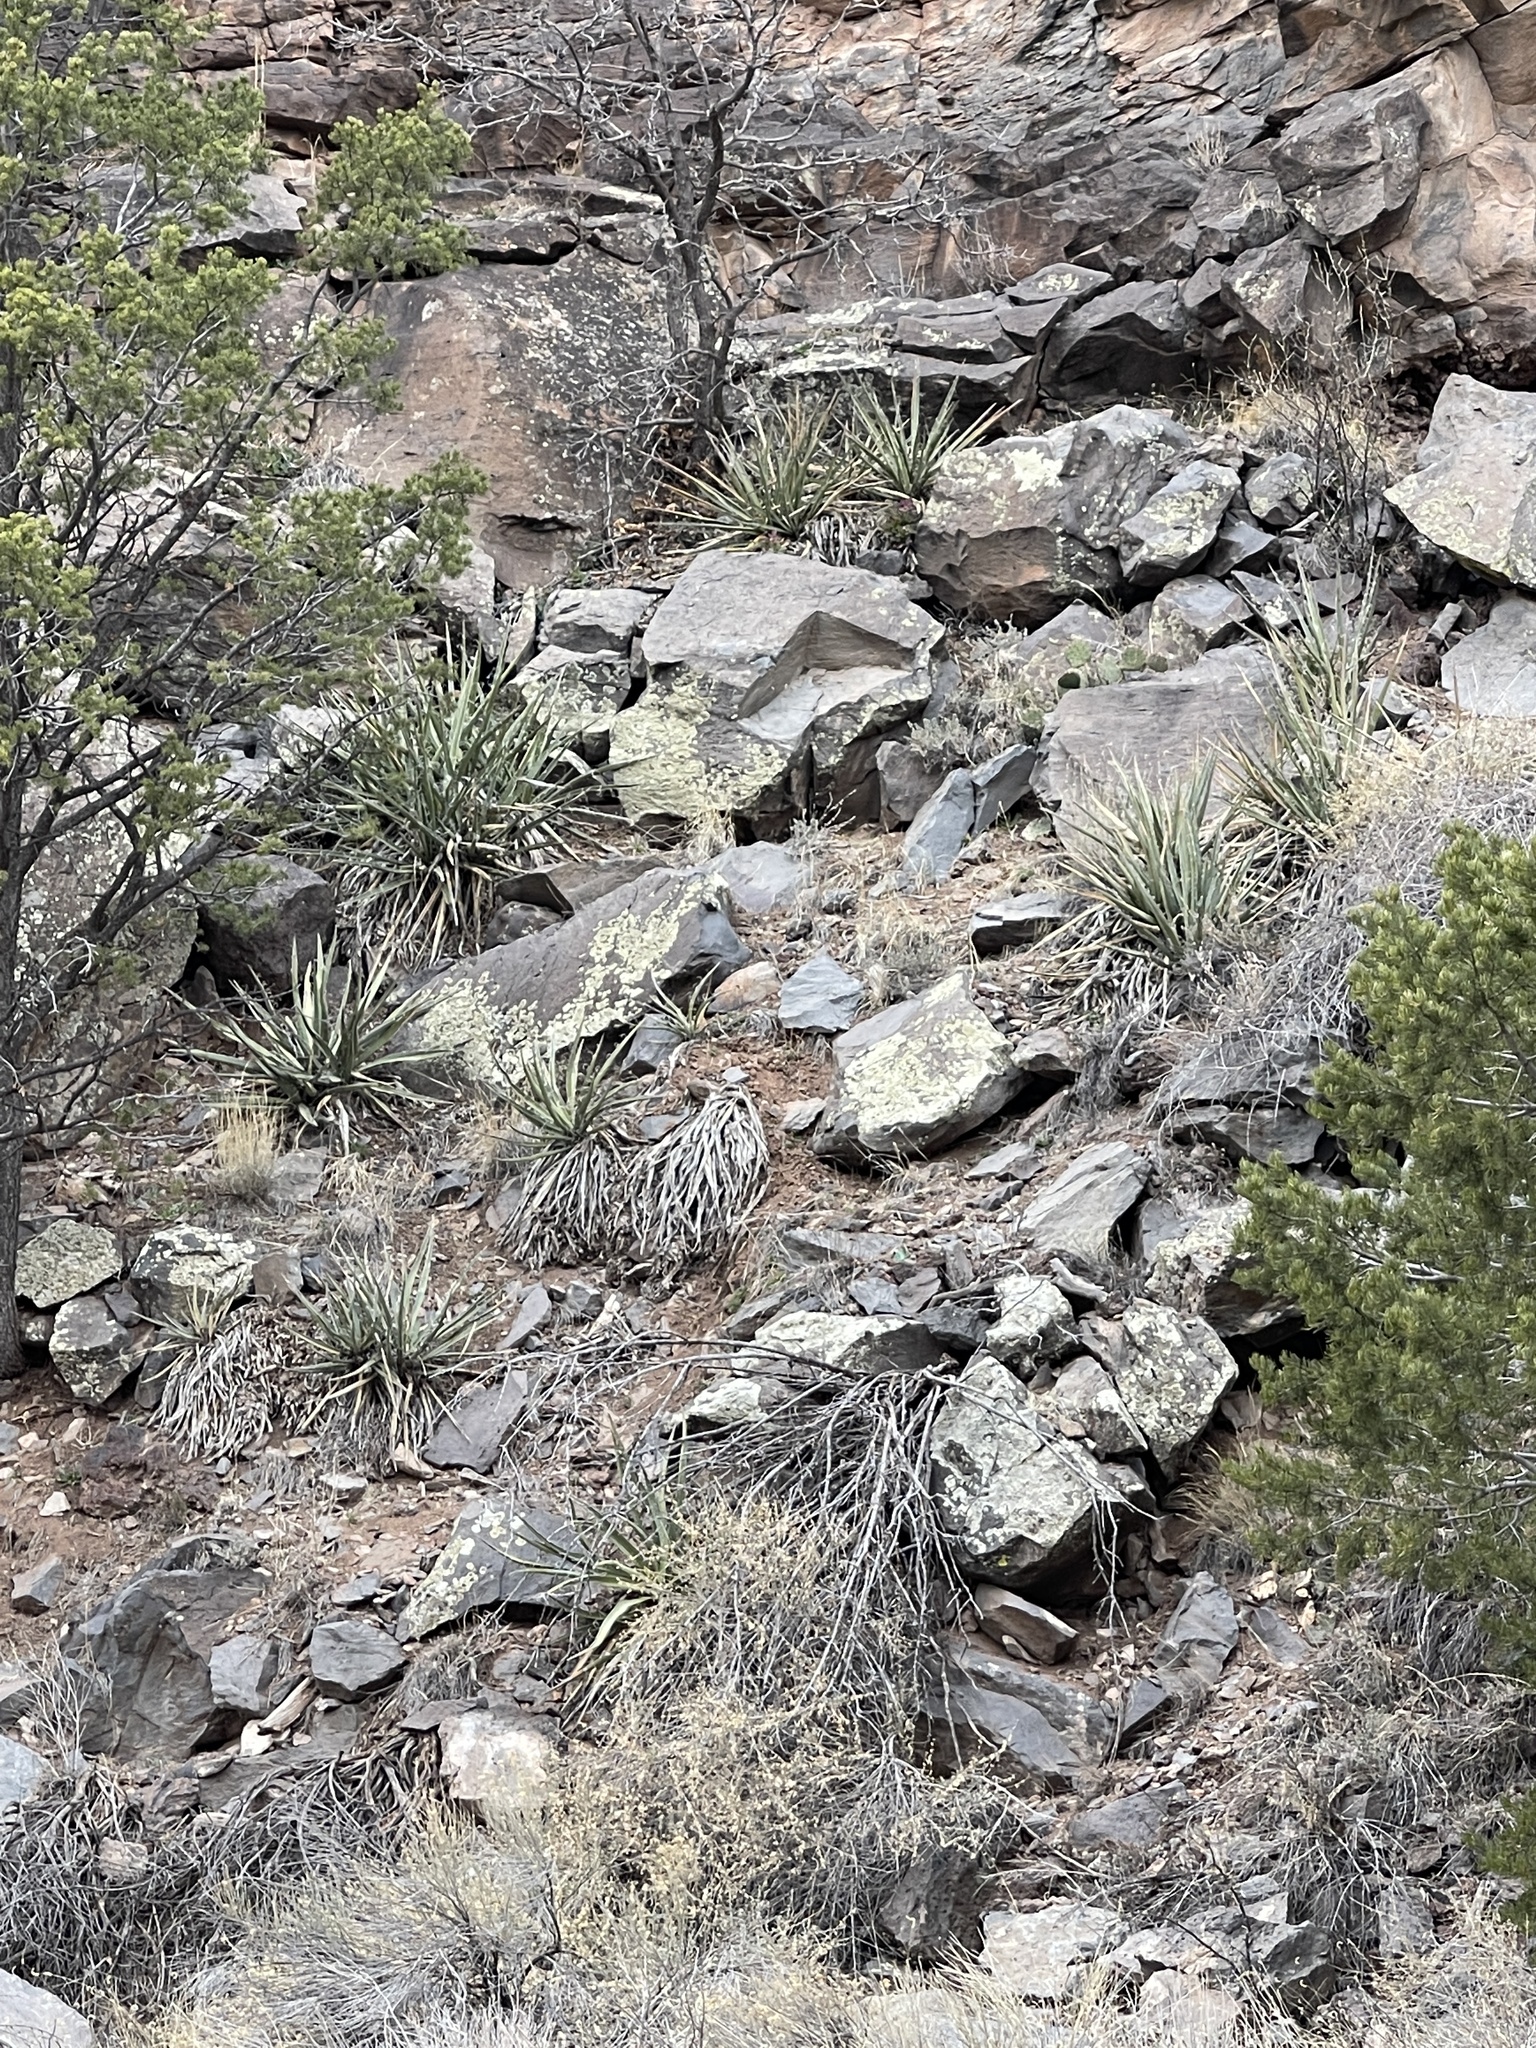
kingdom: Plantae
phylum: Tracheophyta
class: Liliopsida
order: Asparagales
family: Asparagaceae
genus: Yucca
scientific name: Yucca baccata
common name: Banana yucca
